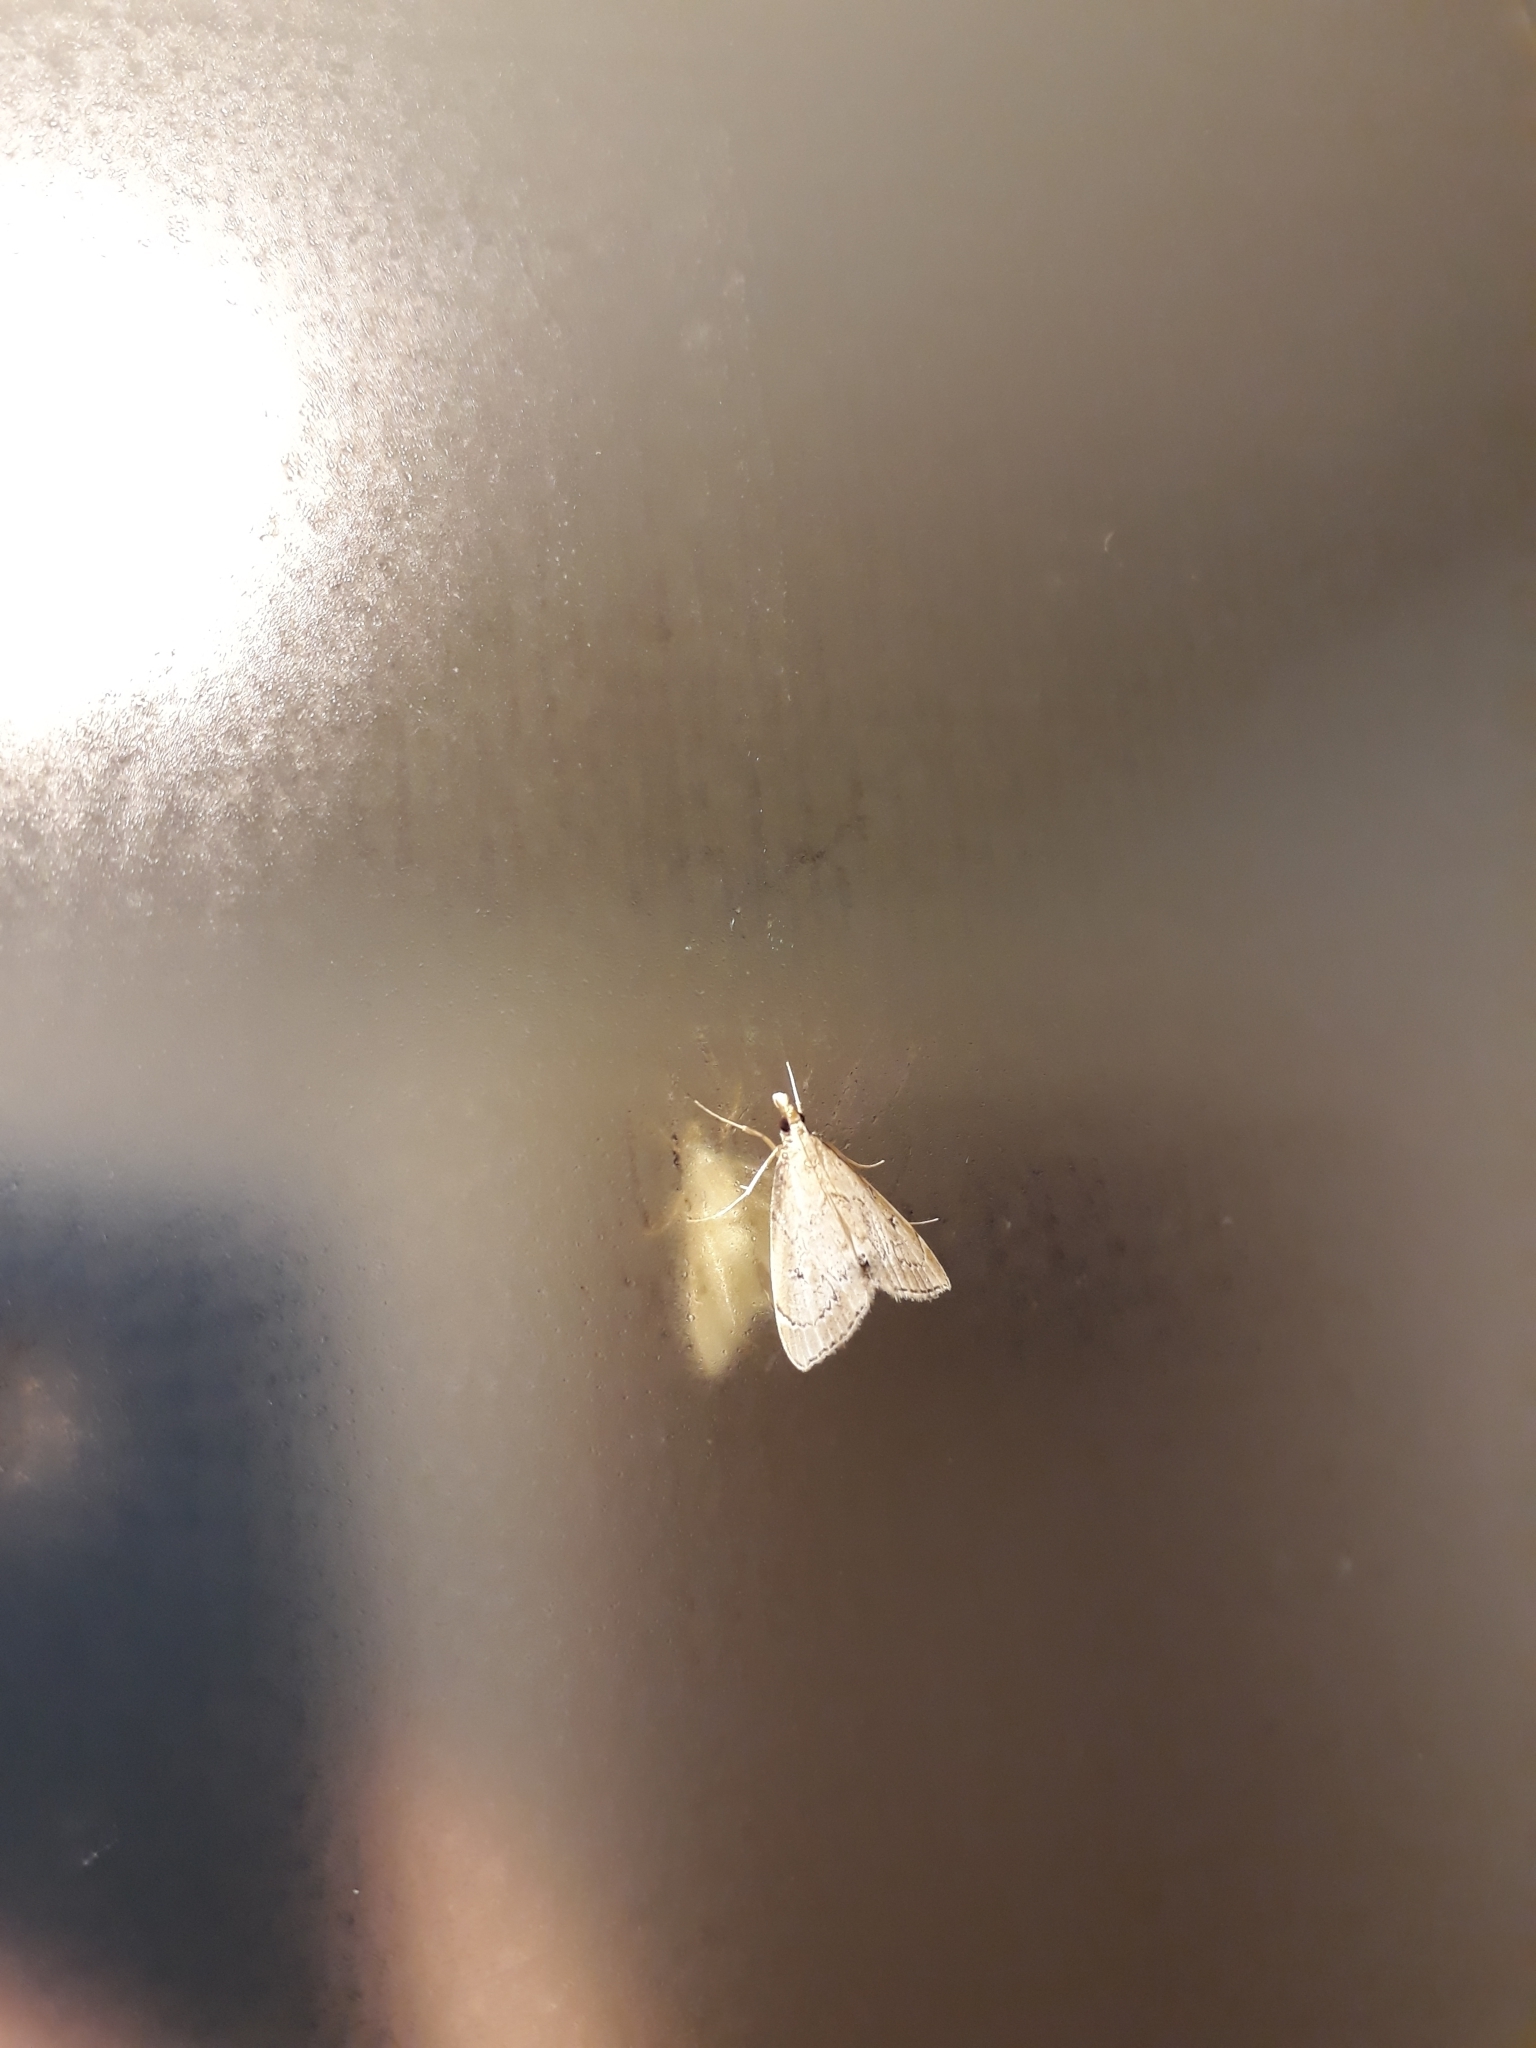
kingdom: Animalia
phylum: Arthropoda
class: Insecta
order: Lepidoptera
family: Crambidae
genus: Clepsicosma
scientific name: Clepsicosma iridia
